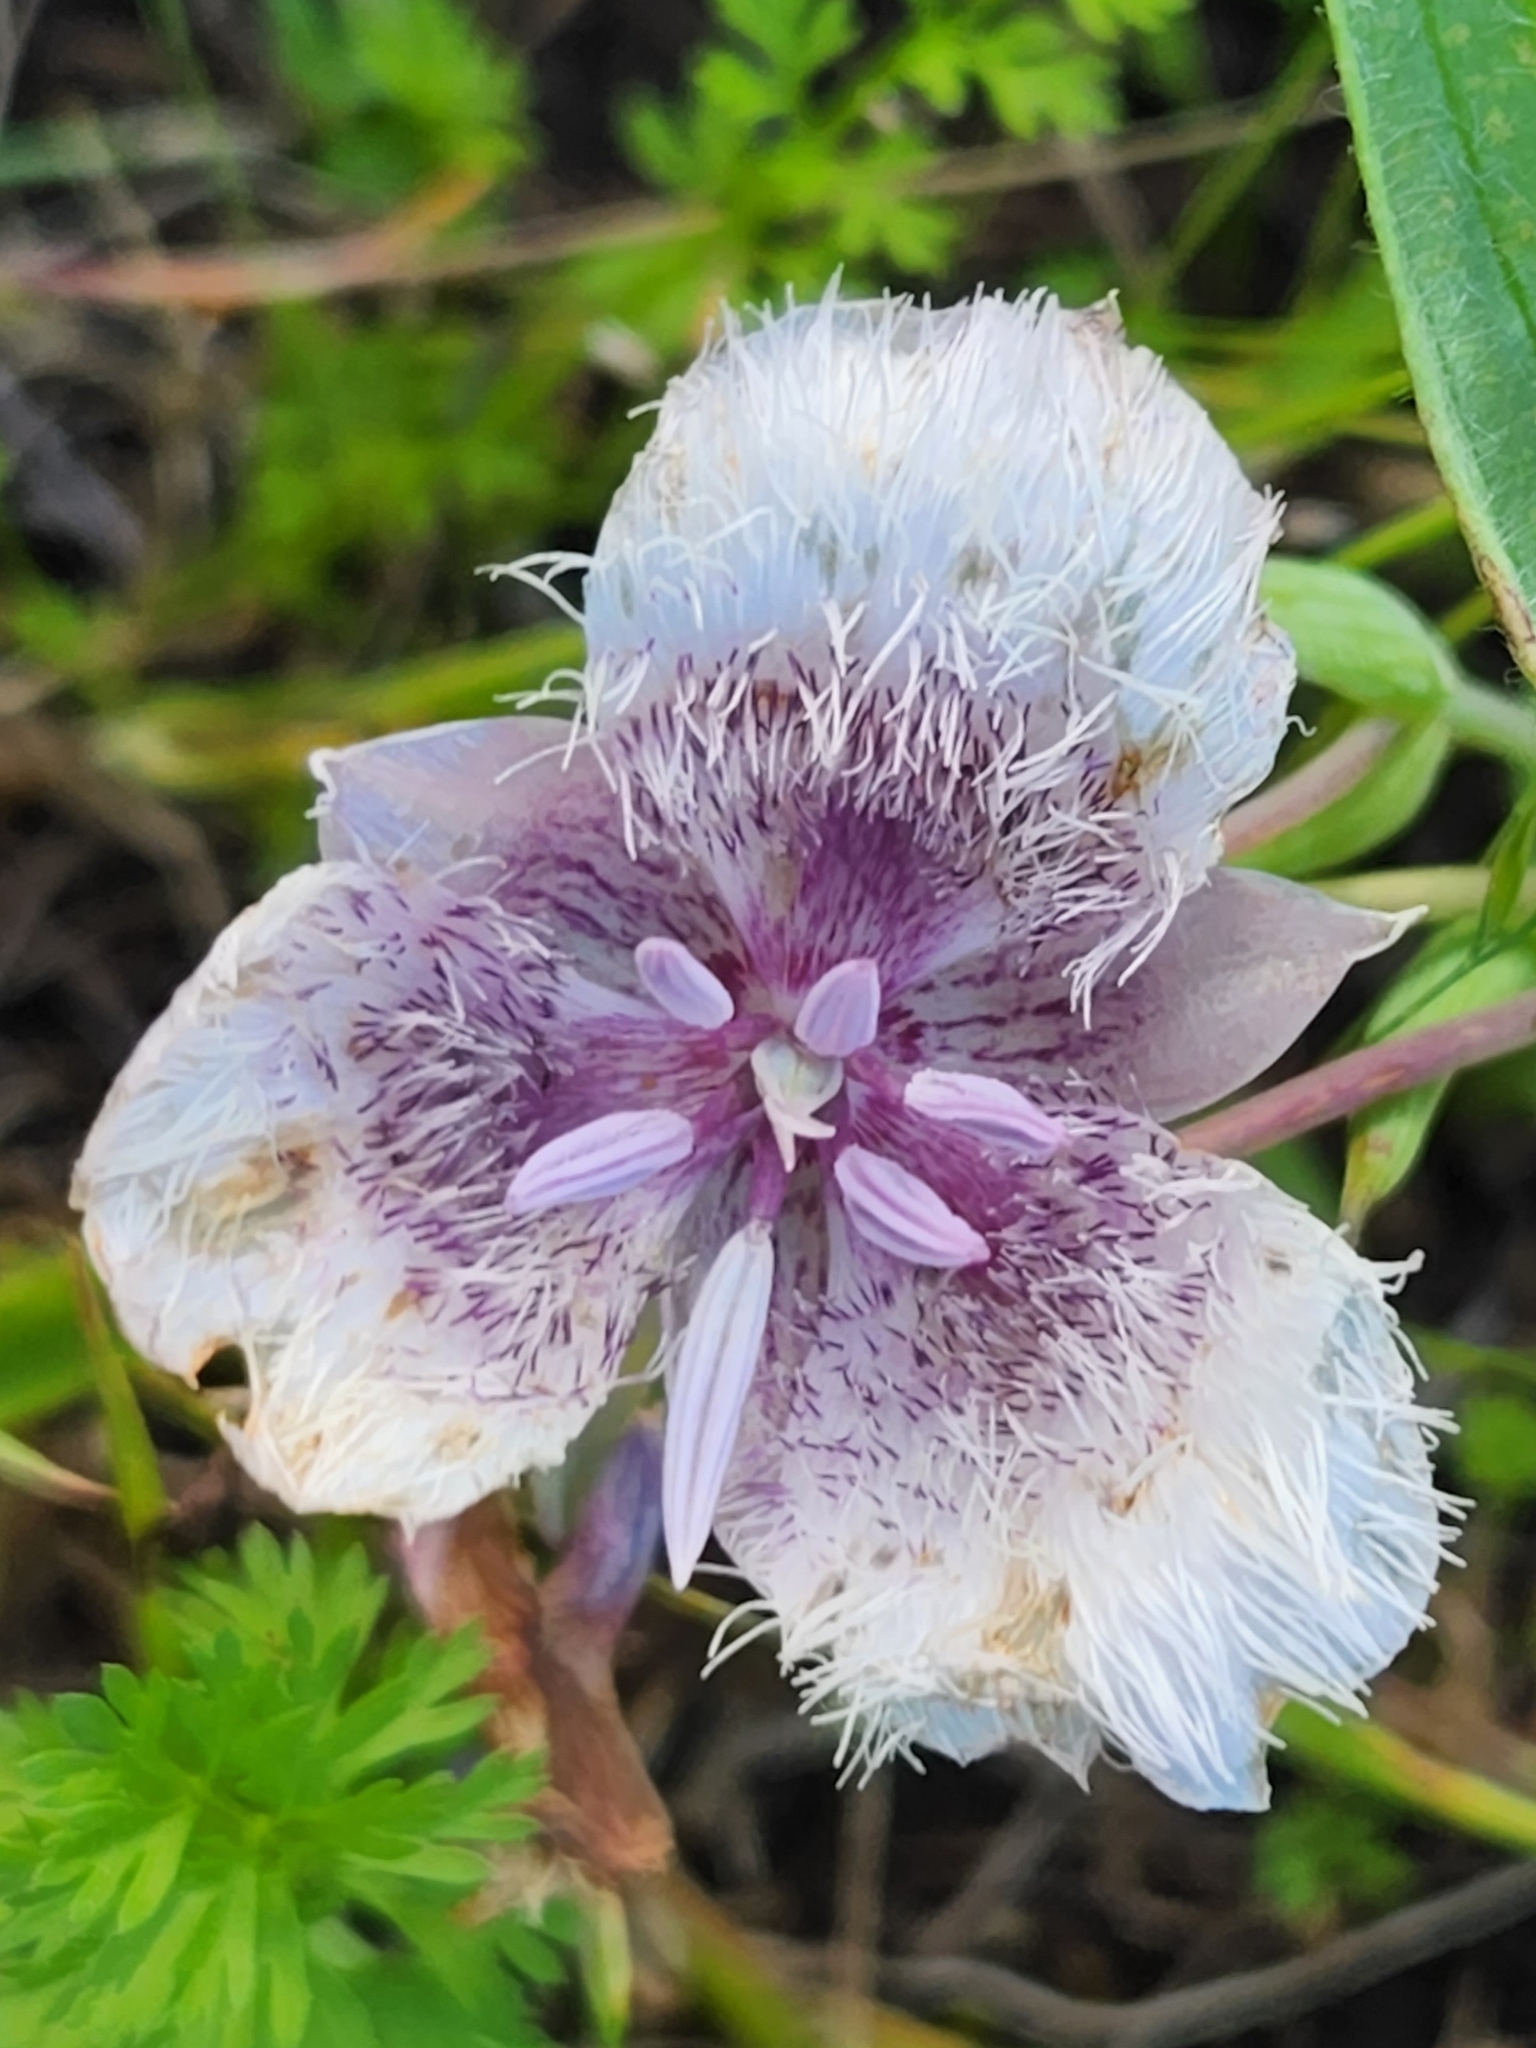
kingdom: Plantae
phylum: Tracheophyta
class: Liliopsida
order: Liliales
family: Liliaceae
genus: Calochortus
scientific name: Calochortus tolmiei
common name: Pussy-ears
